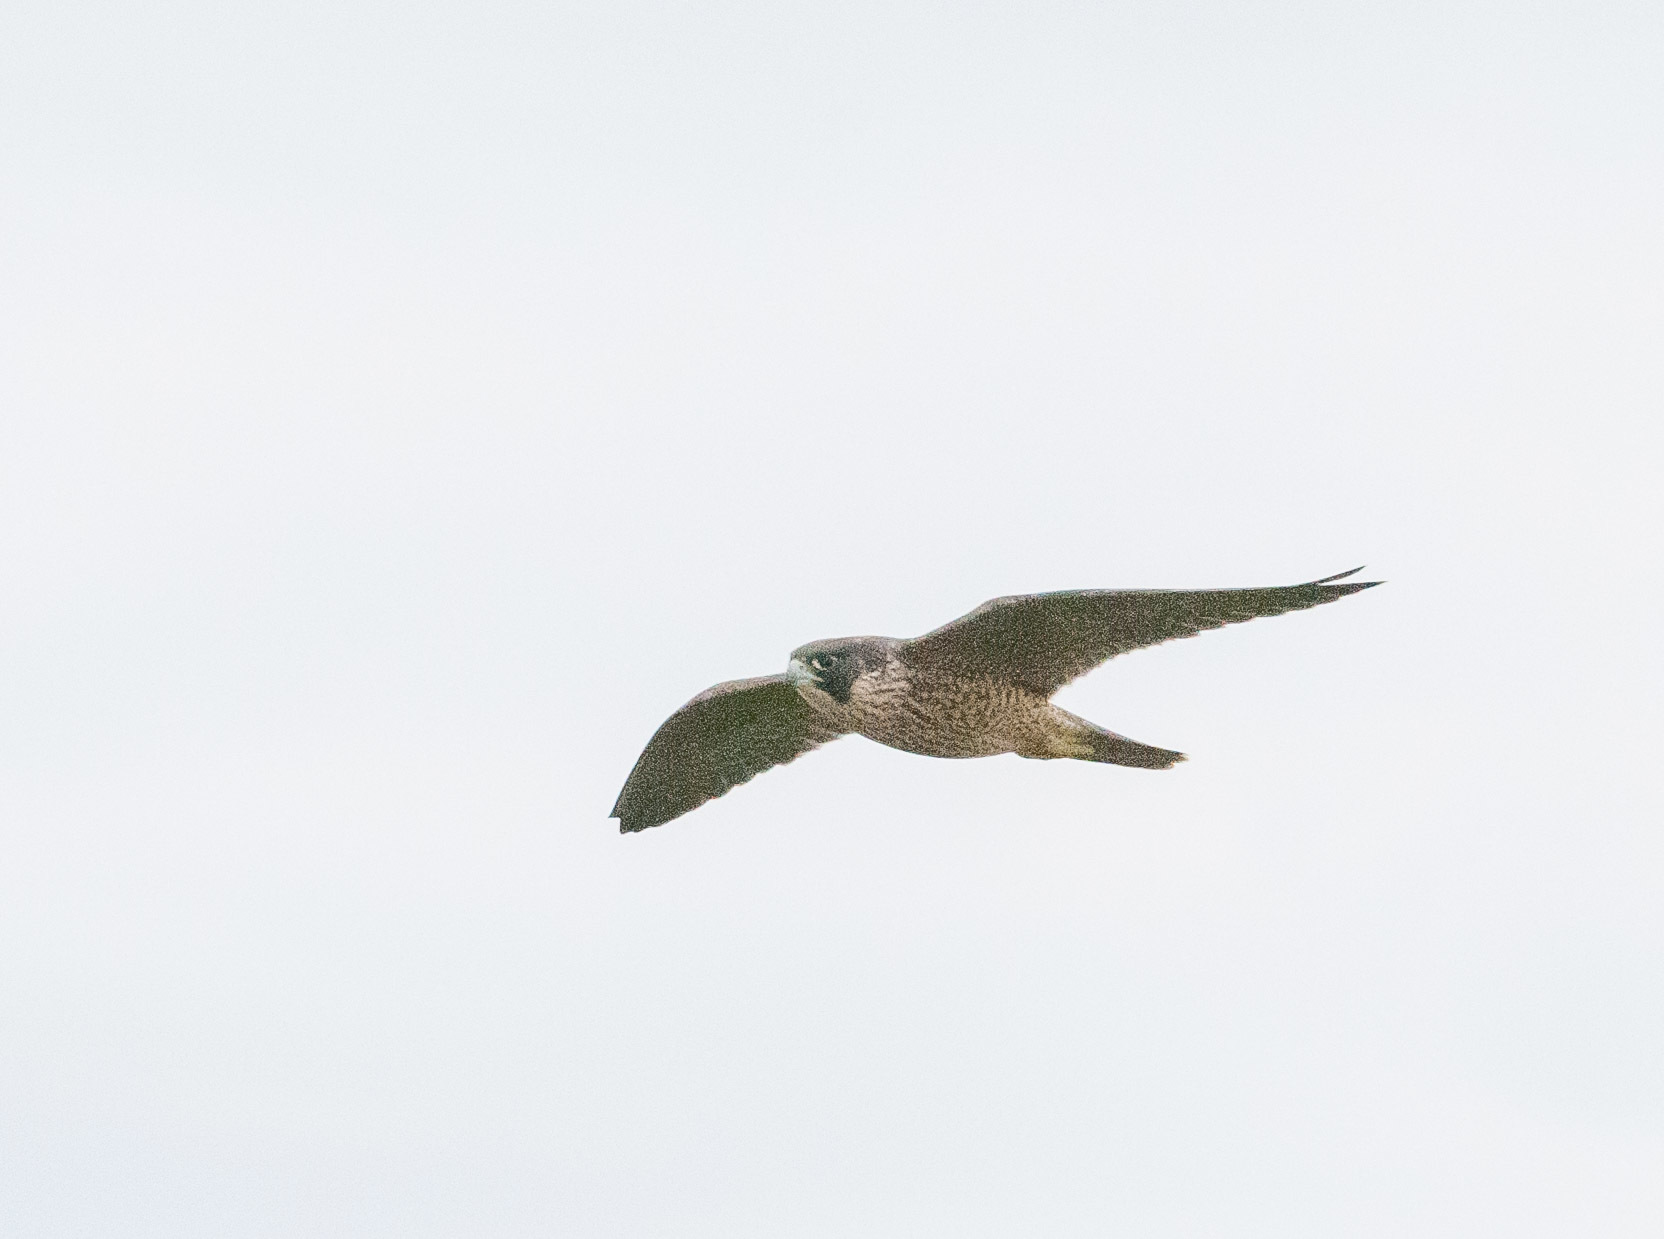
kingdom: Animalia
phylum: Chordata
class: Aves
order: Falconiformes
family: Falconidae
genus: Falco
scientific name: Falco peregrinus
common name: Peregrine falcon
